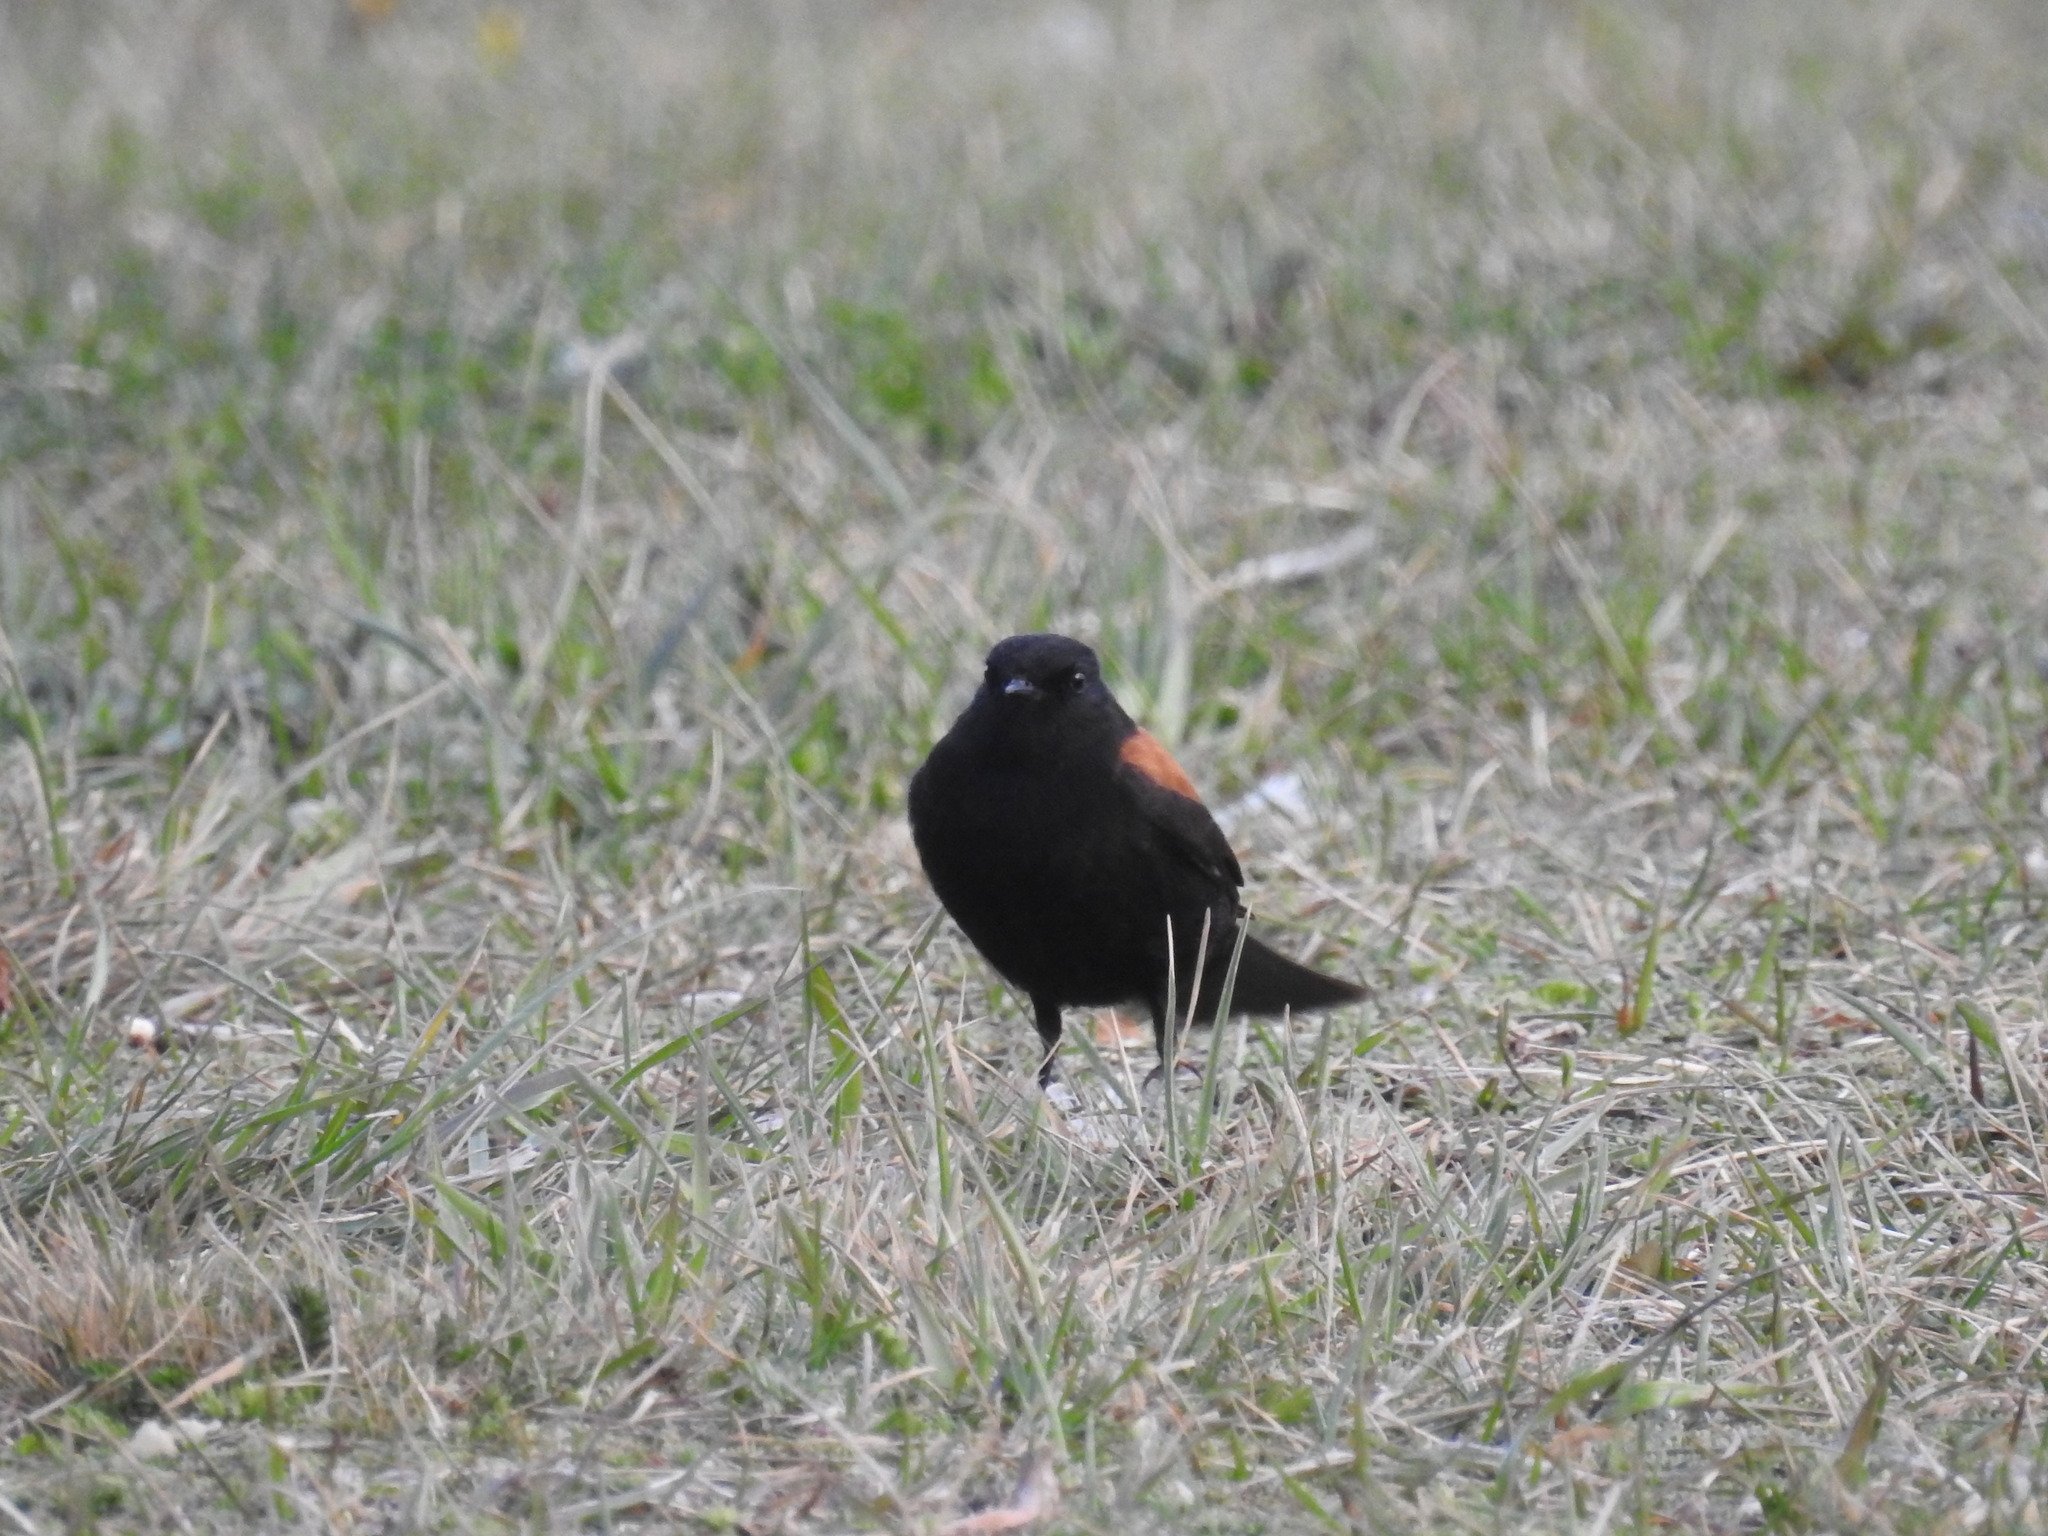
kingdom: Animalia
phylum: Chordata
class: Aves
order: Passeriformes
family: Tyrannidae
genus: Lessonia
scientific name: Lessonia rufa
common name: Austral negrito
